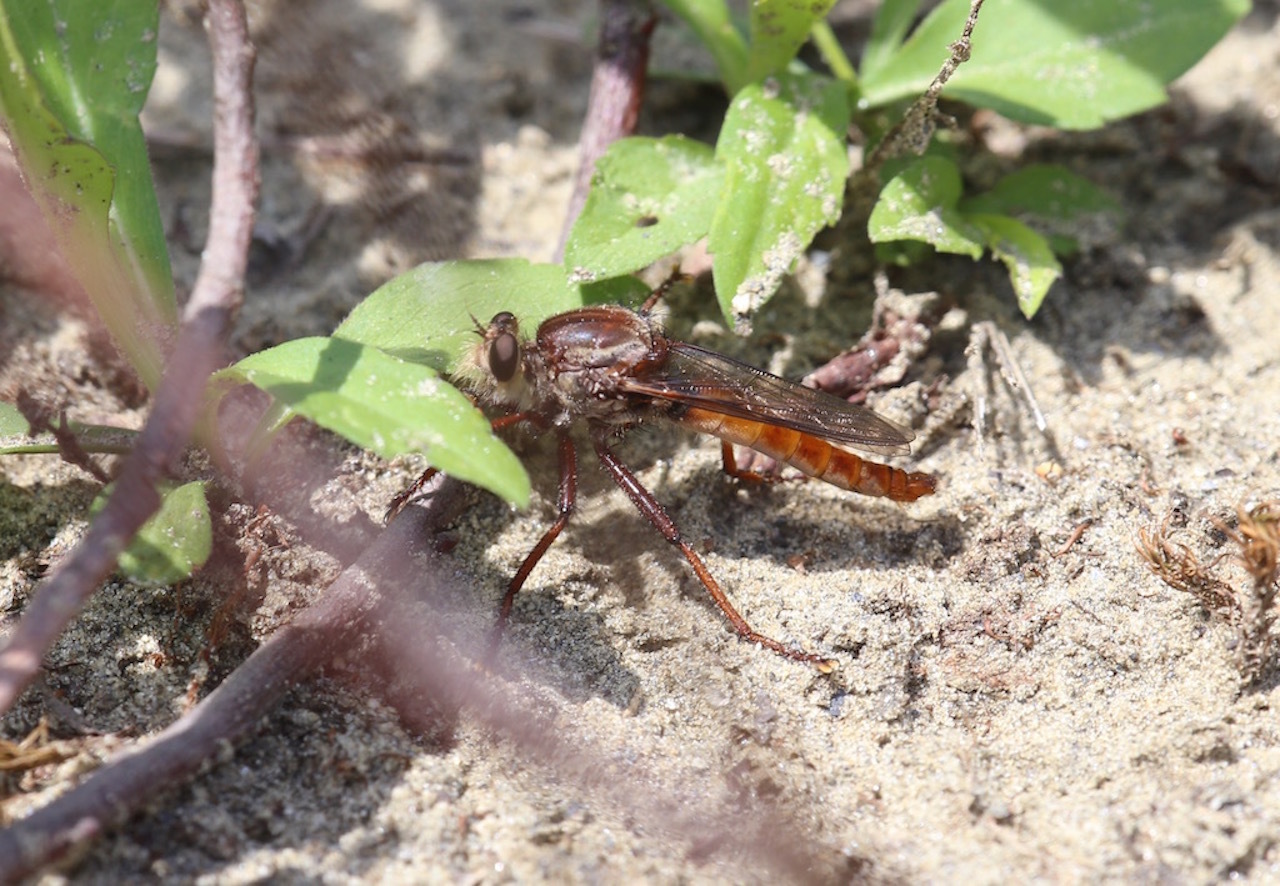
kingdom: Animalia
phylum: Arthropoda
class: Insecta
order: Diptera
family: Asilidae
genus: Proctacanthus
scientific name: Proctacanthus rufus
